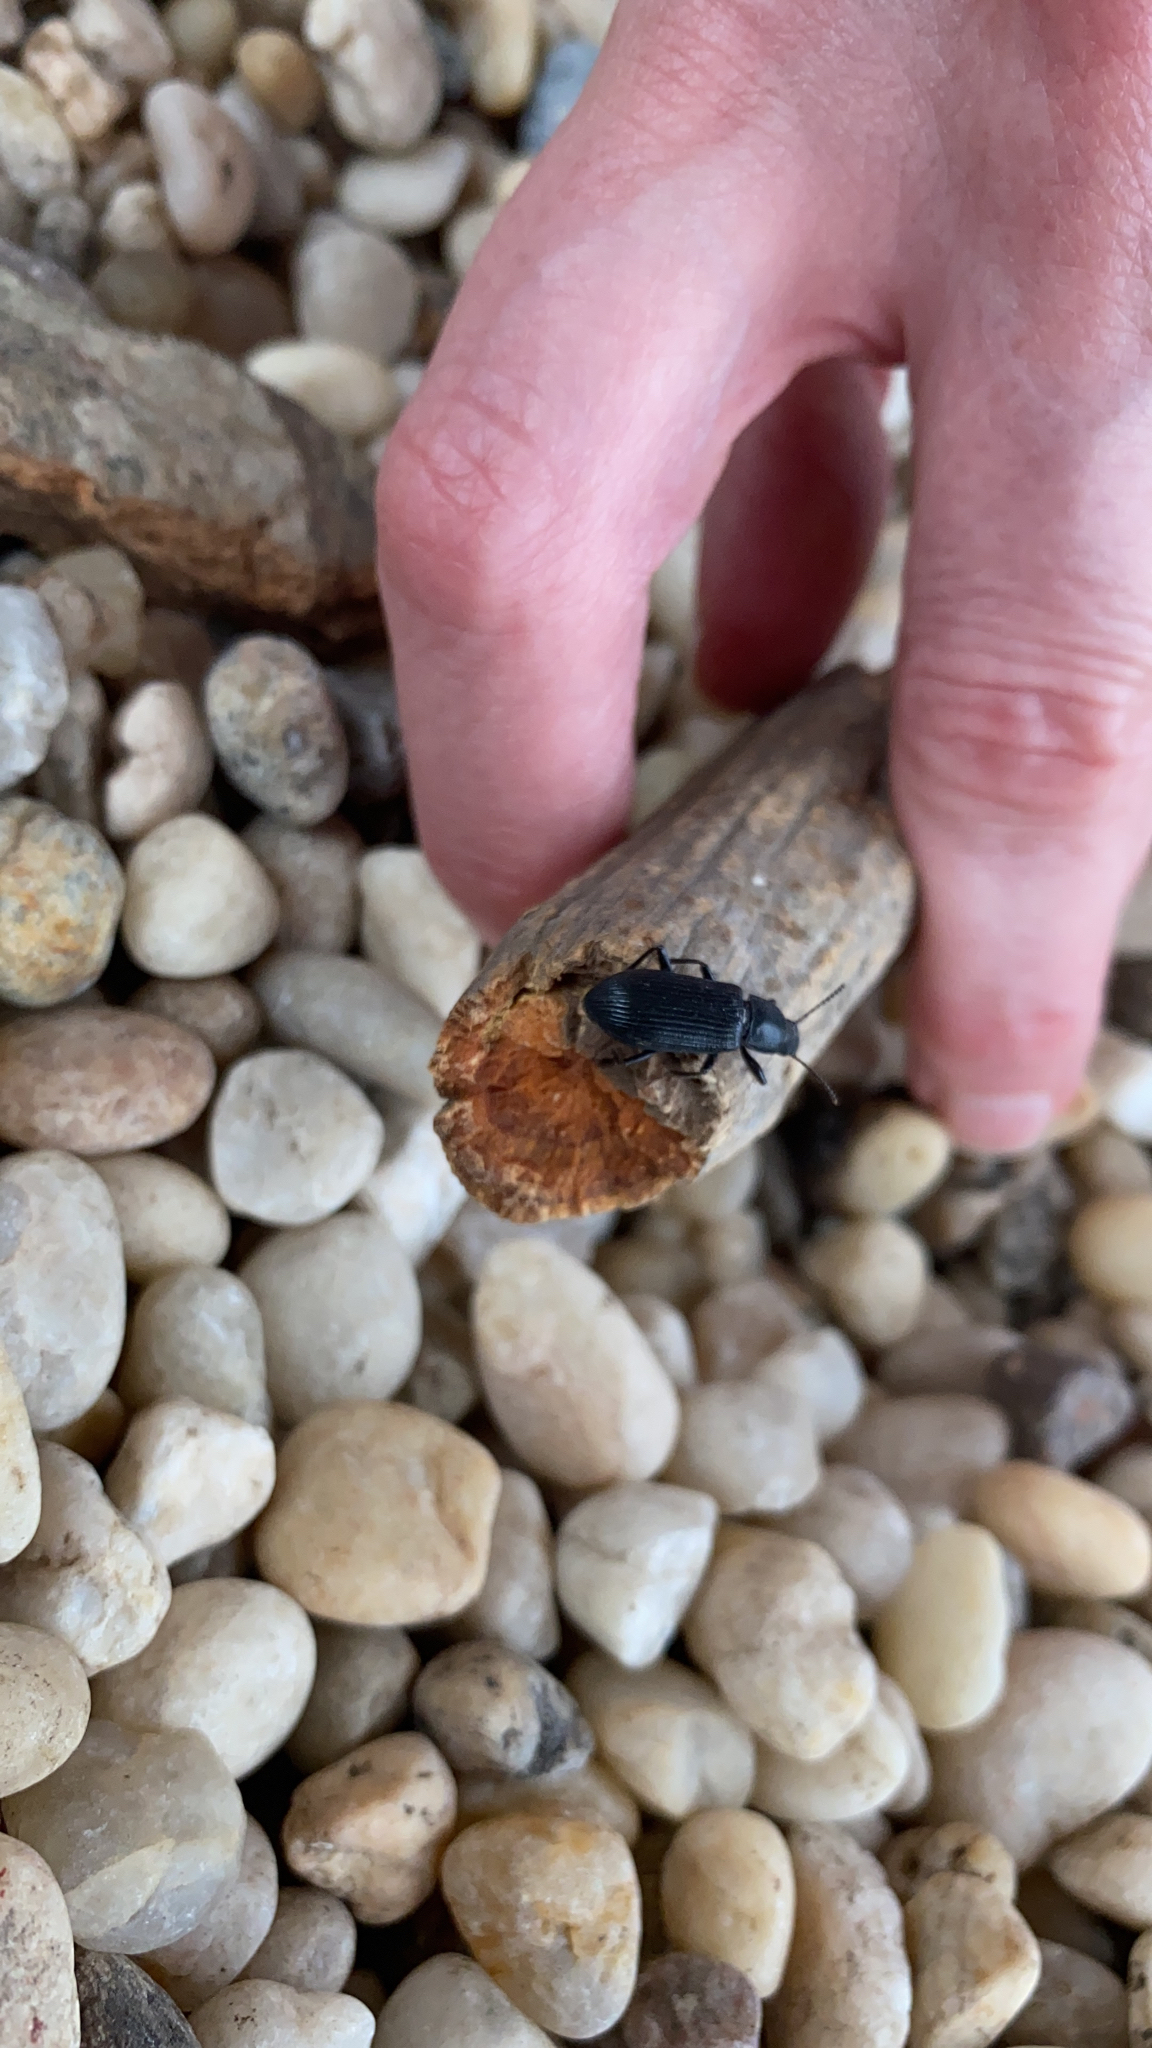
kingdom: Animalia
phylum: Arthropoda
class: Insecta
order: Coleoptera
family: Tenebrionidae
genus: Xylopinus
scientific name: Xylopinus saperdoides
